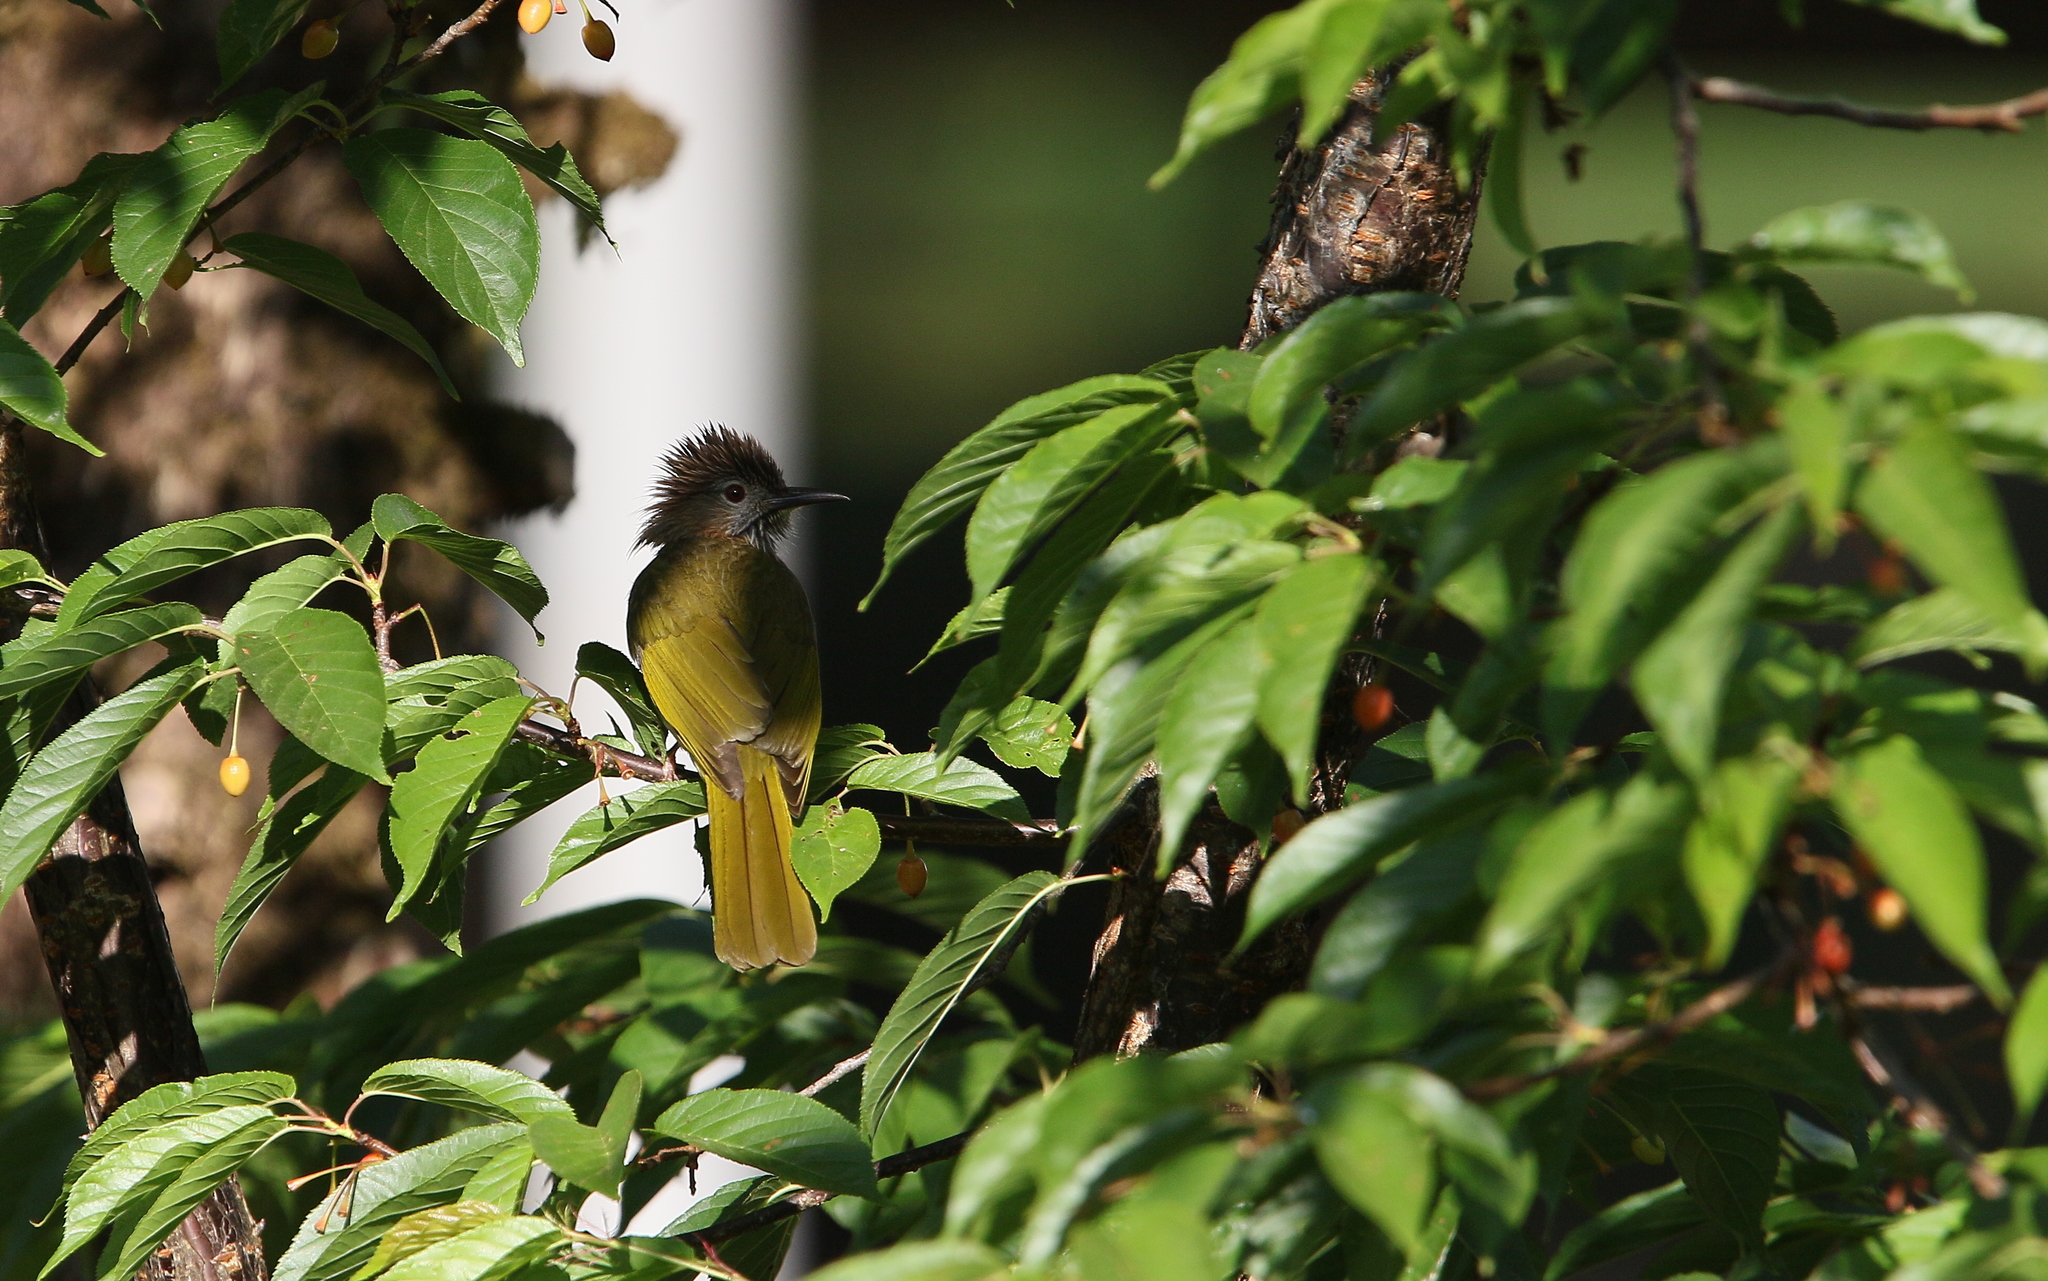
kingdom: Animalia
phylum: Chordata
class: Aves
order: Passeriformes
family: Pycnonotidae
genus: Ixos
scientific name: Ixos mcclellandii
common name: Mountain bulbul
